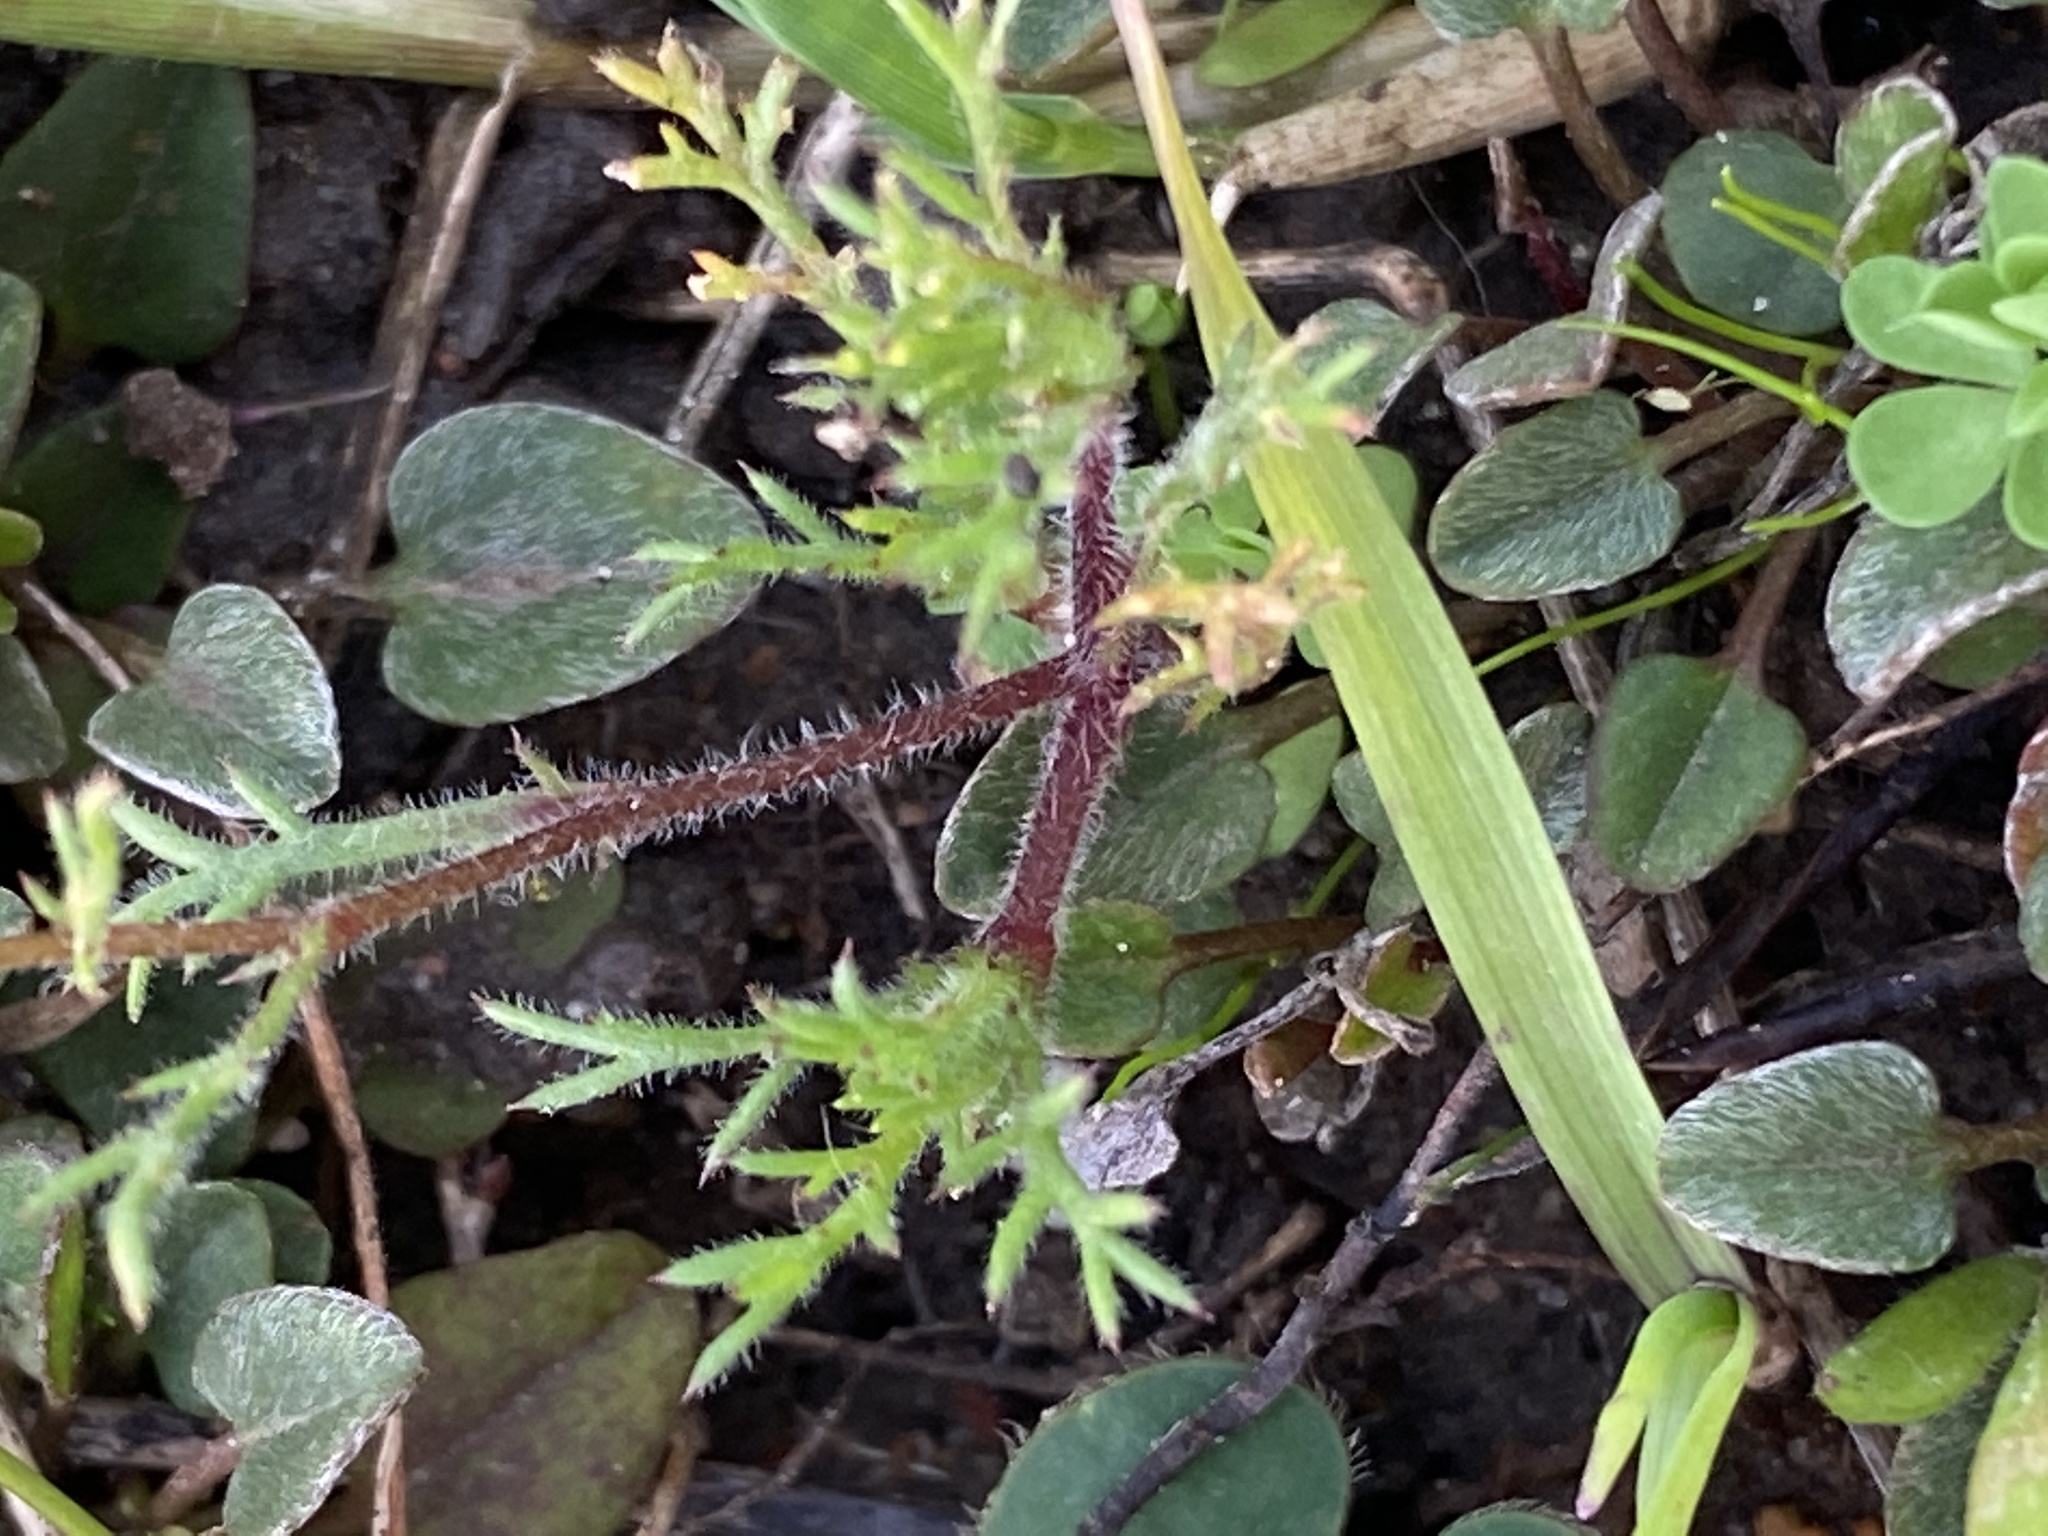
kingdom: Plantae
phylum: Tracheophyta
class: Magnoliopsida
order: Asterales
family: Asteraceae
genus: Cotula
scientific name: Cotula turbinata
